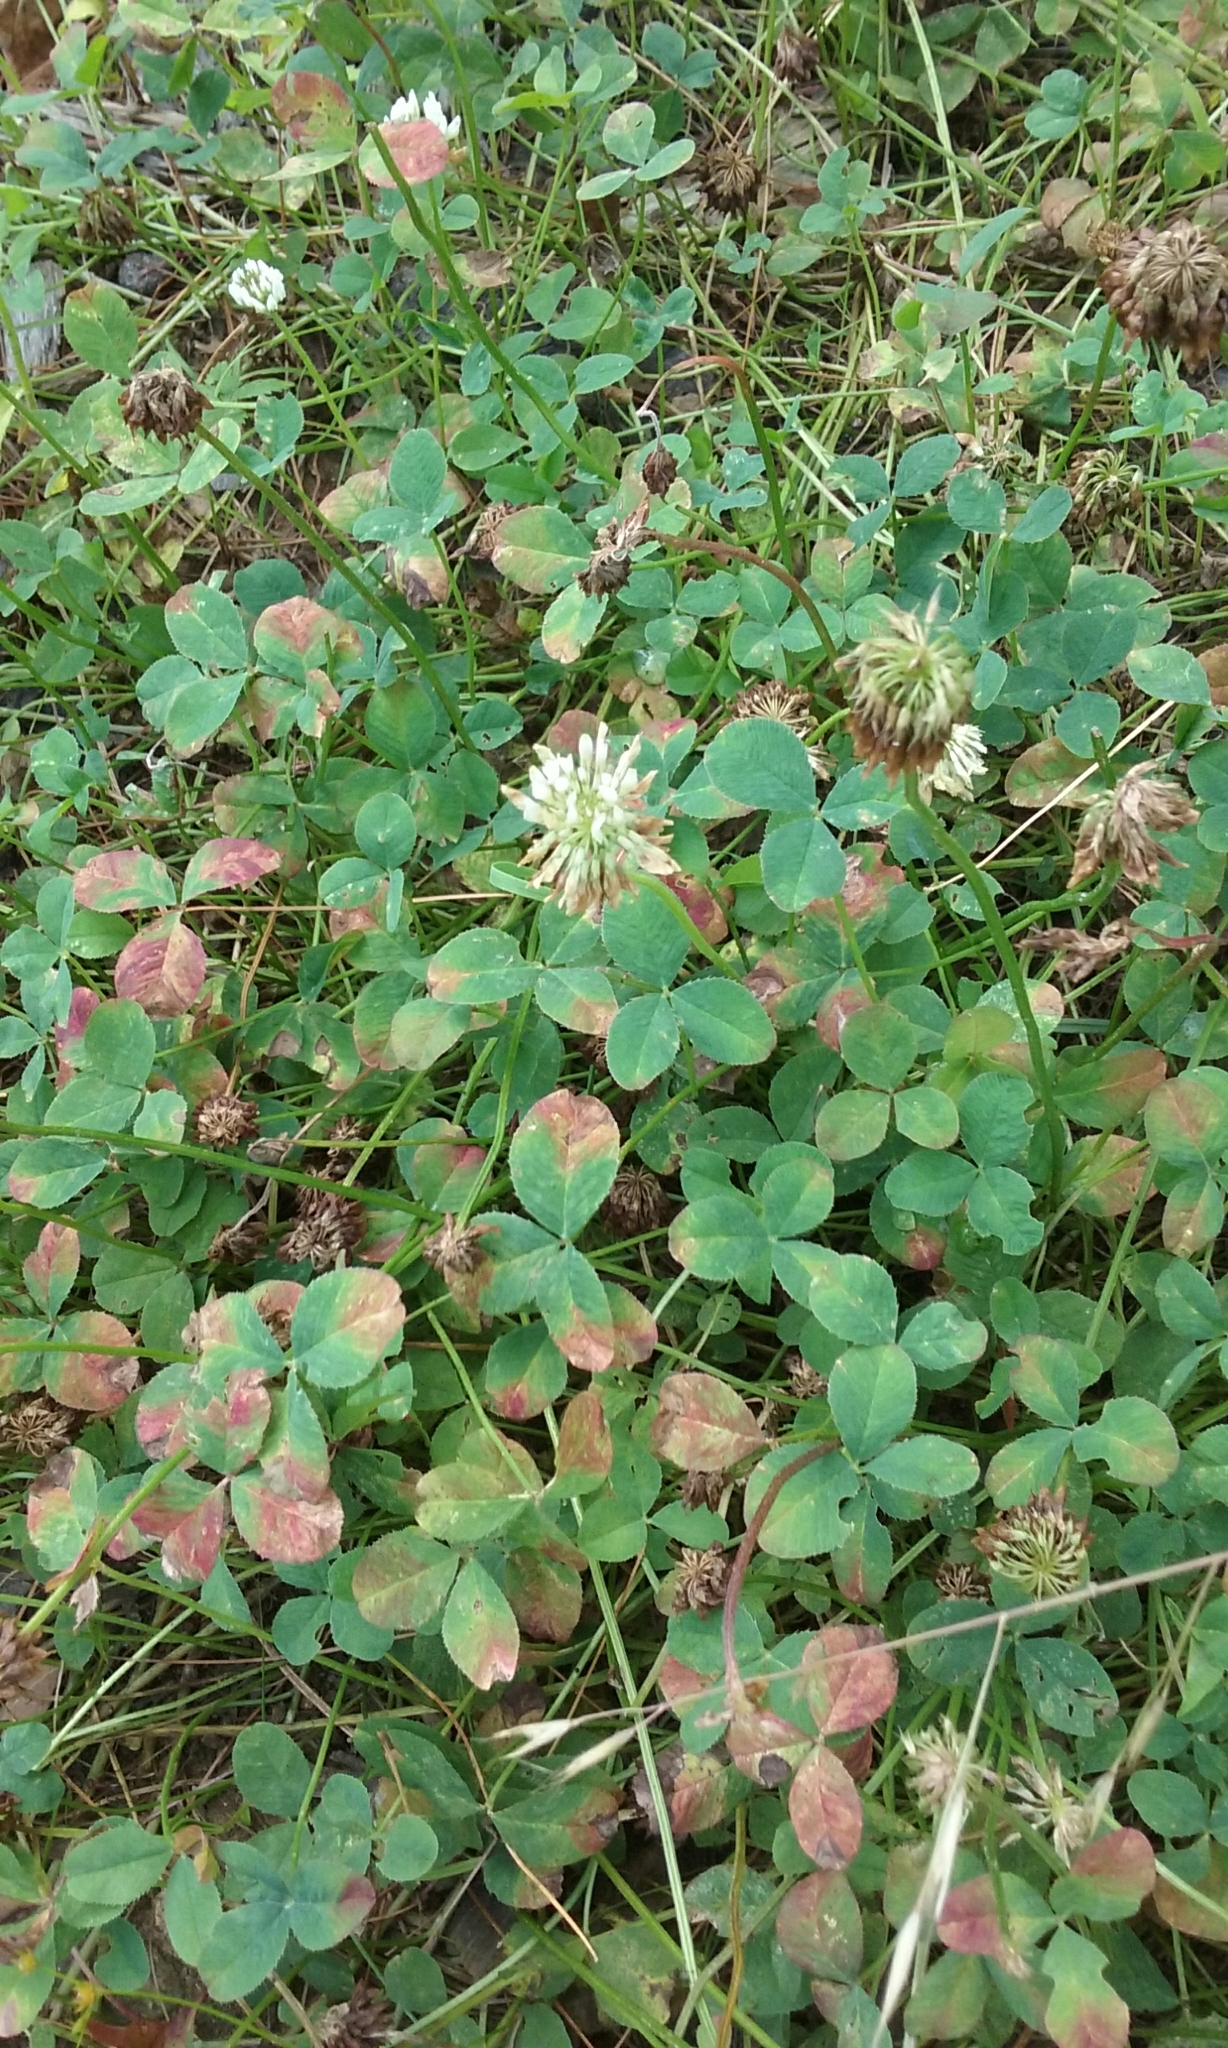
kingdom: Plantae
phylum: Tracheophyta
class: Magnoliopsida
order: Fabales
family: Fabaceae
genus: Trifolium
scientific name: Trifolium repens
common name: White clover
